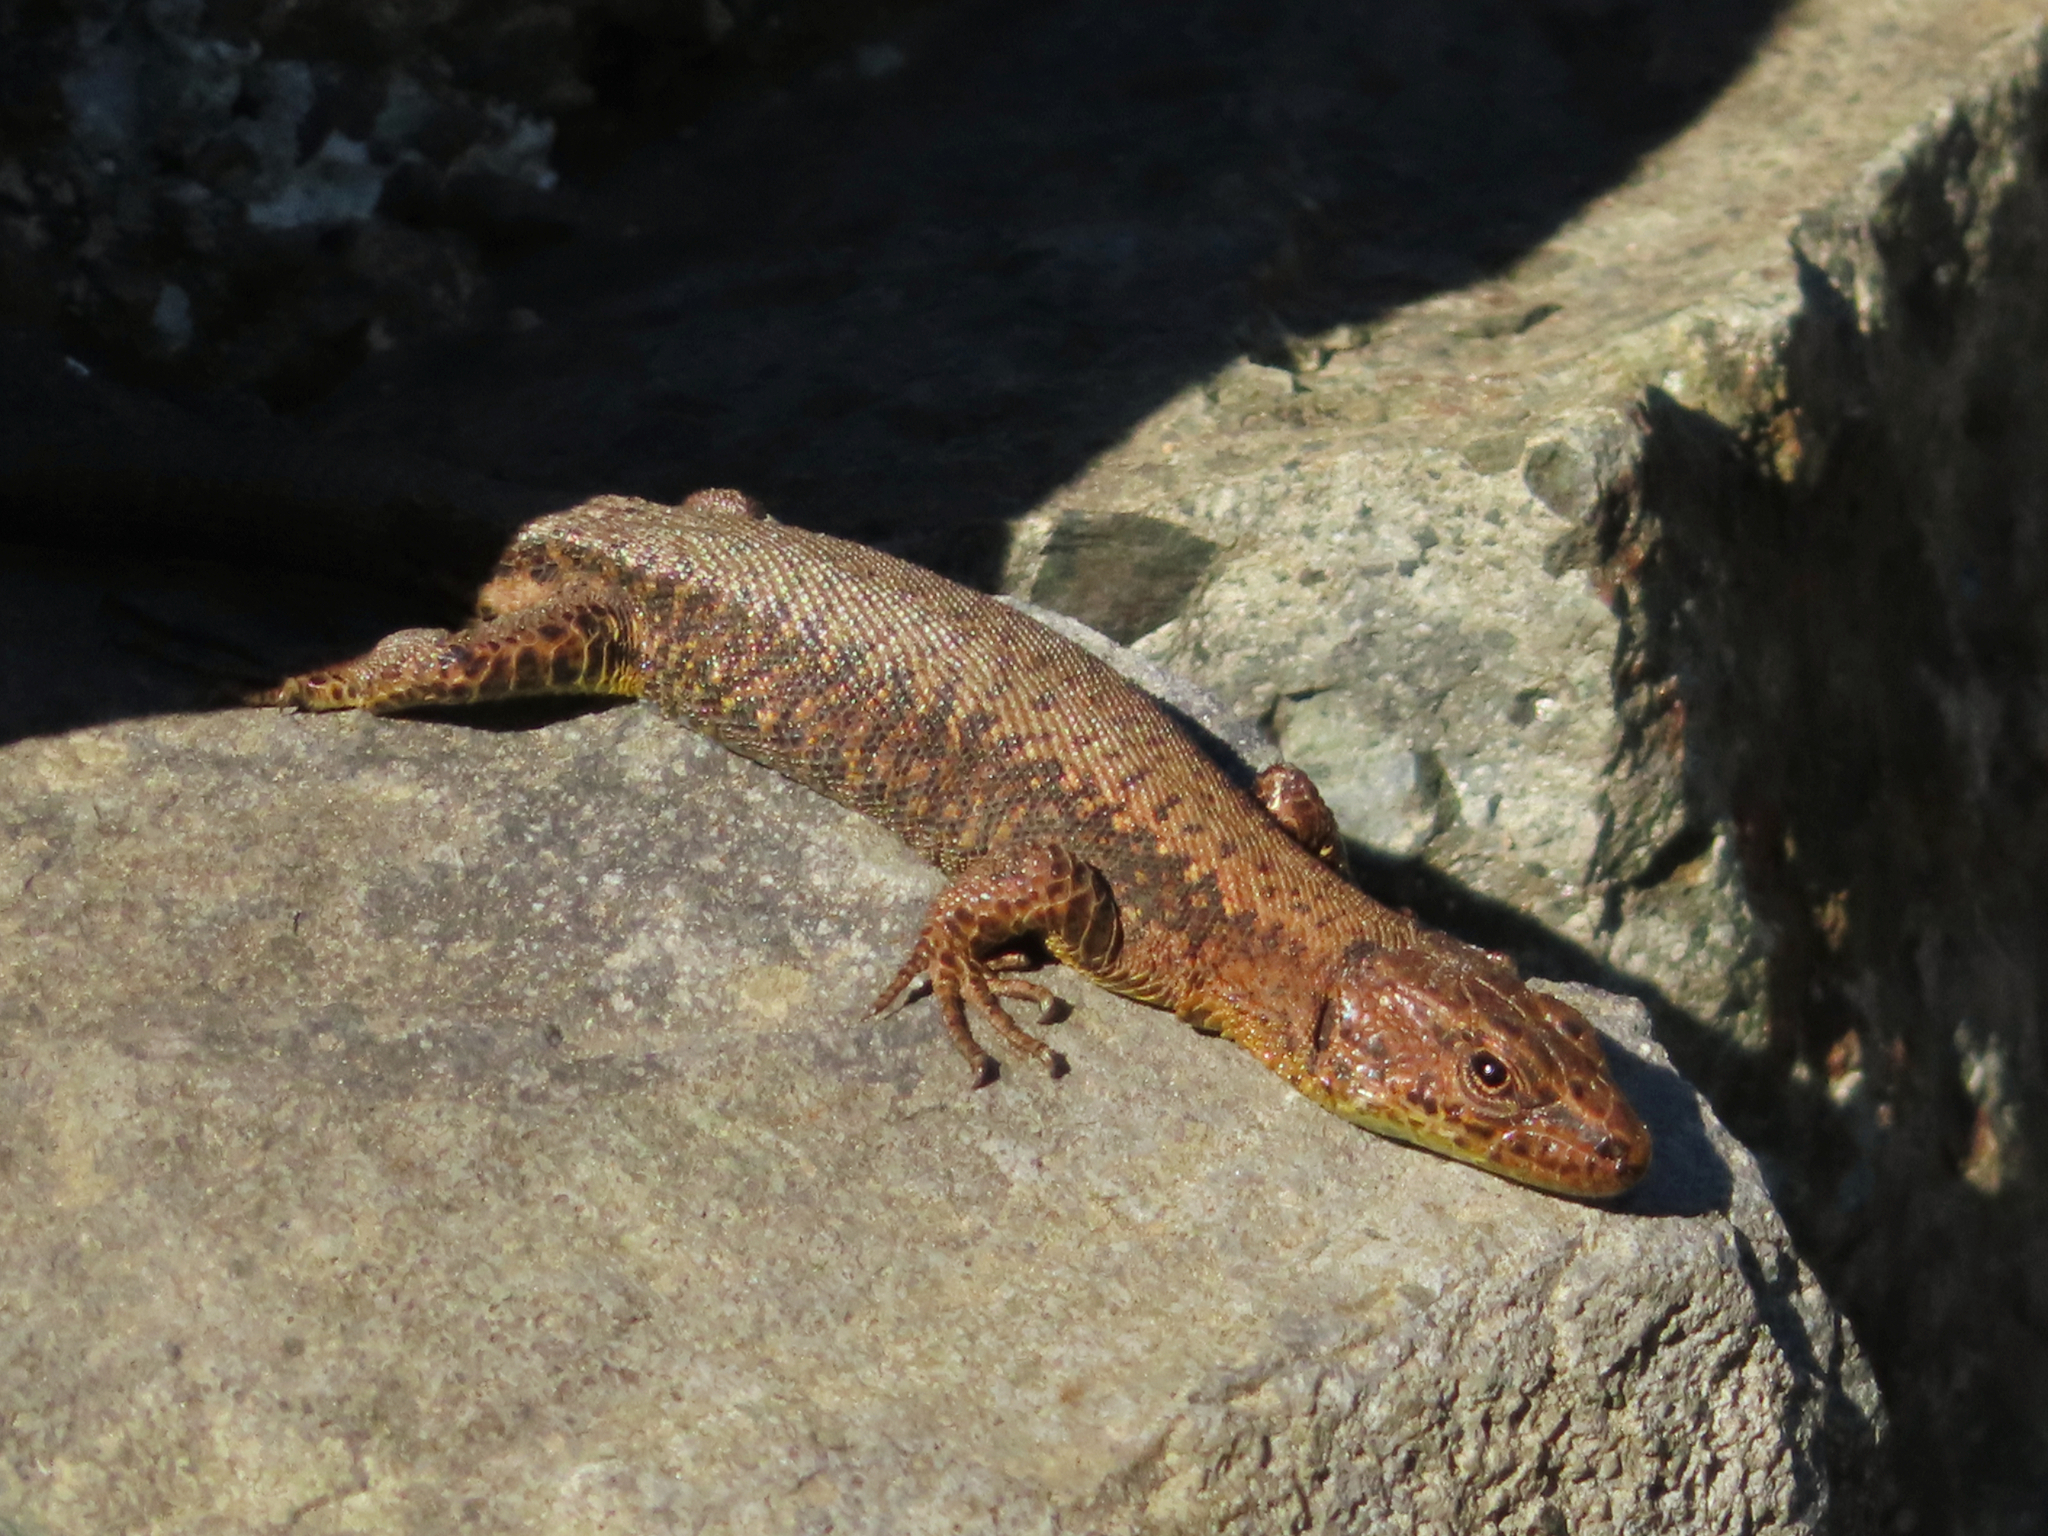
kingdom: Animalia
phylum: Chordata
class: Squamata
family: Lacertidae
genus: Darevskia
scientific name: Darevskia derjugini
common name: Derjugin's lizard
